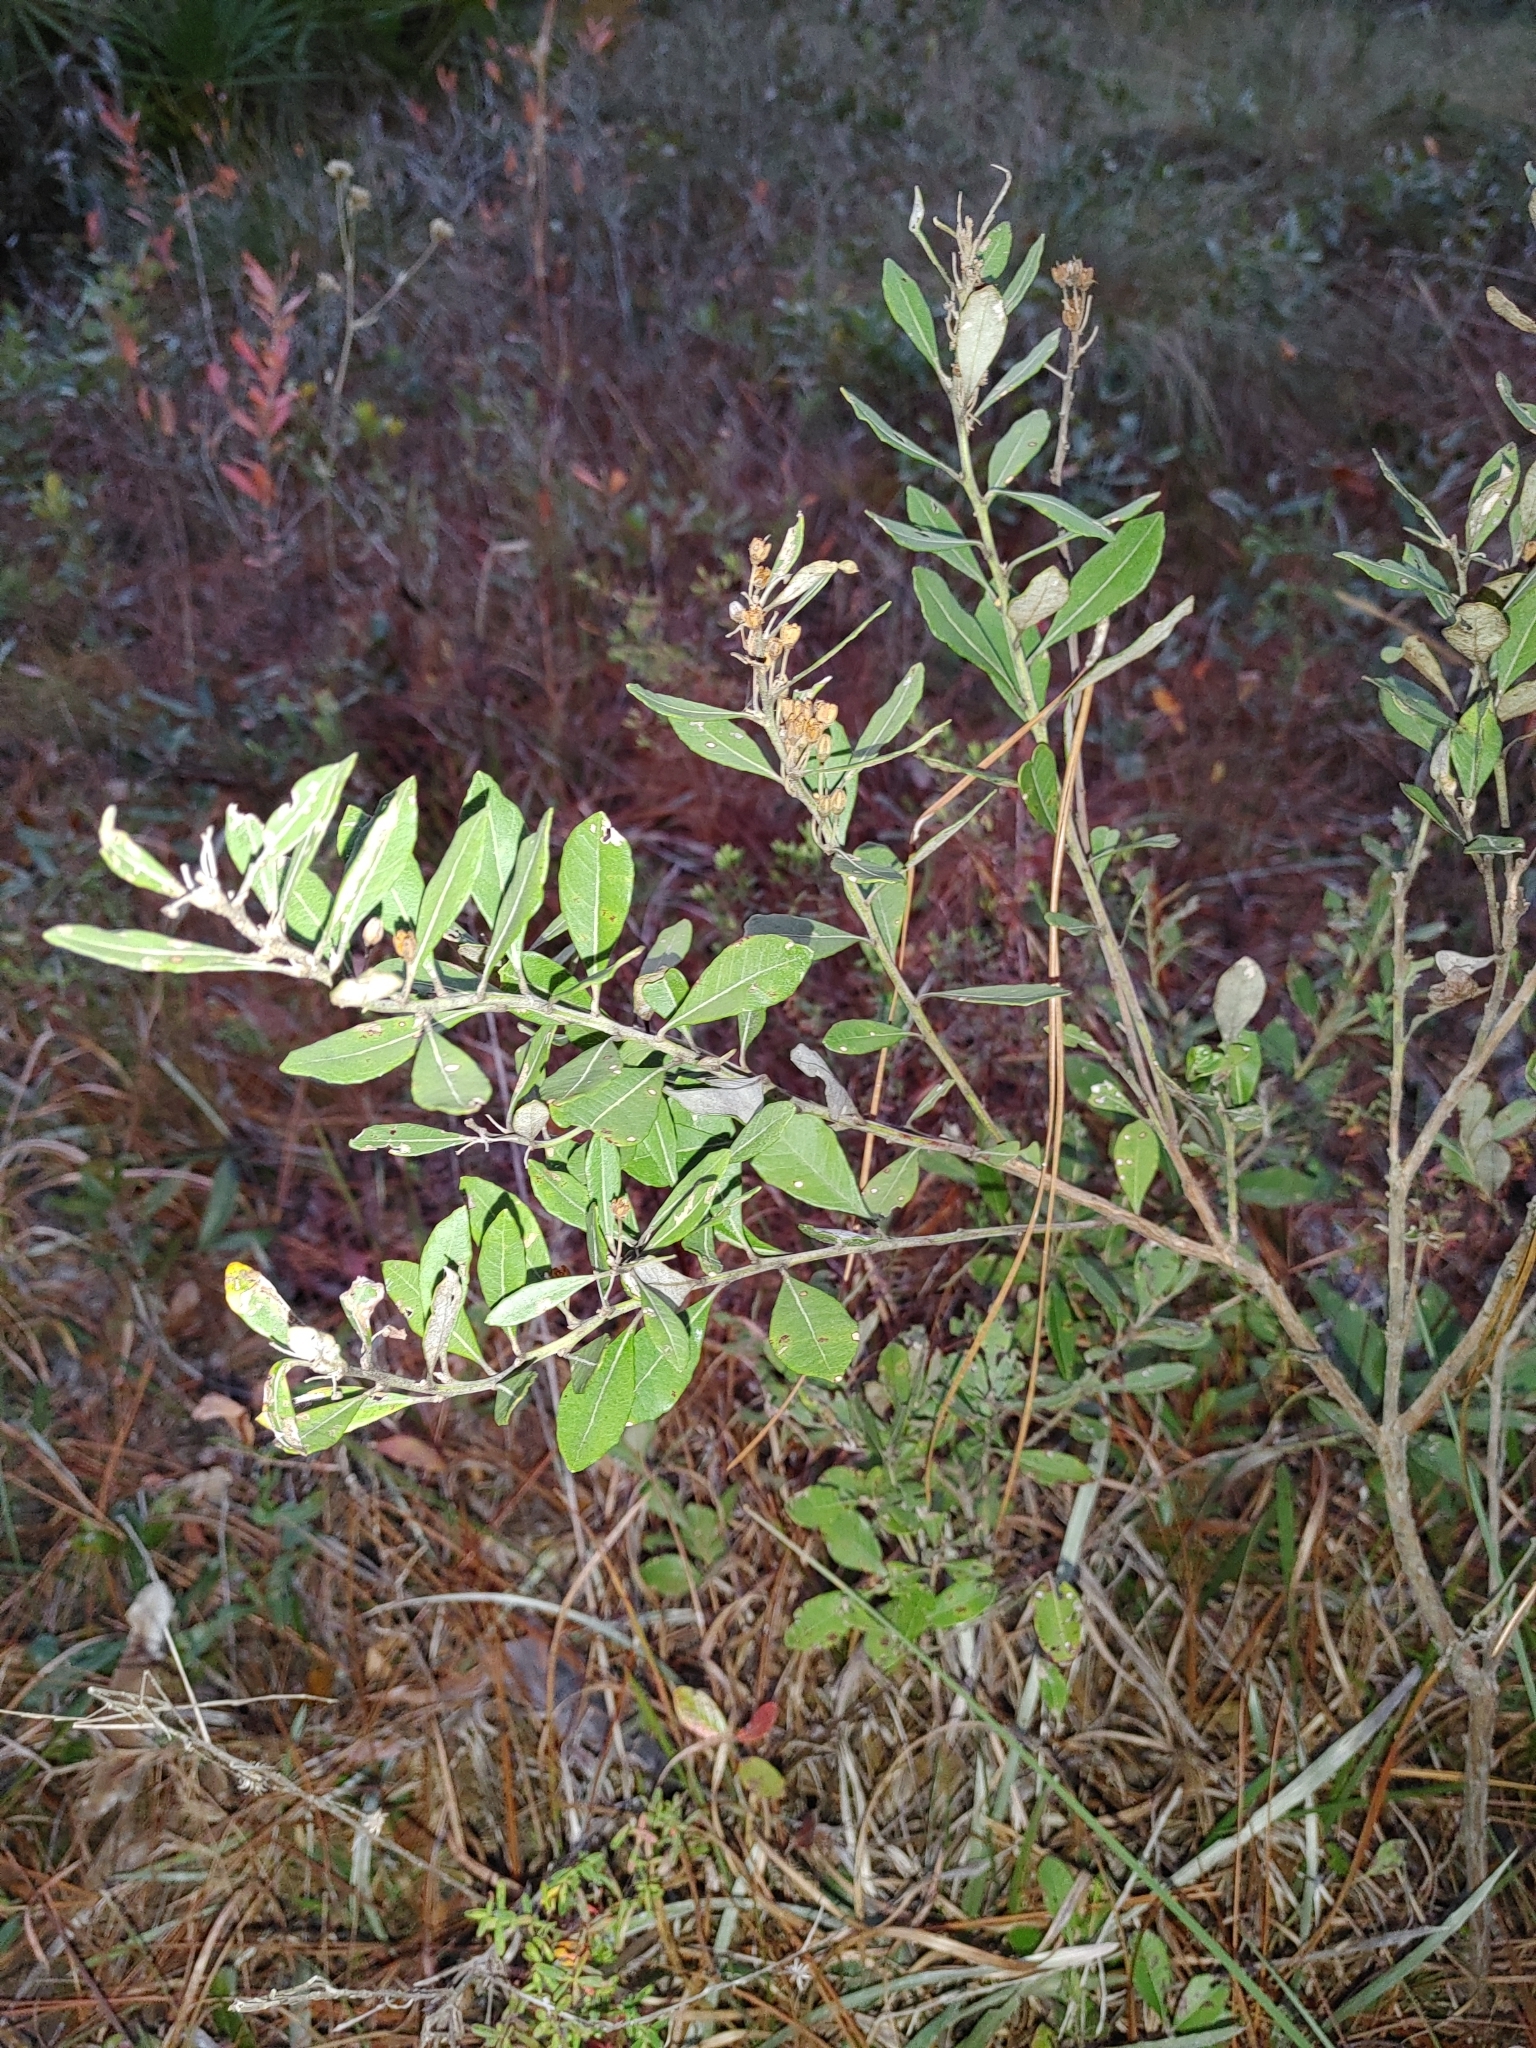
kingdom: Plantae
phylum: Tracheophyta
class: Magnoliopsida
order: Ericales
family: Ericaceae
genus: Lyonia
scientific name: Lyonia fruticosa
